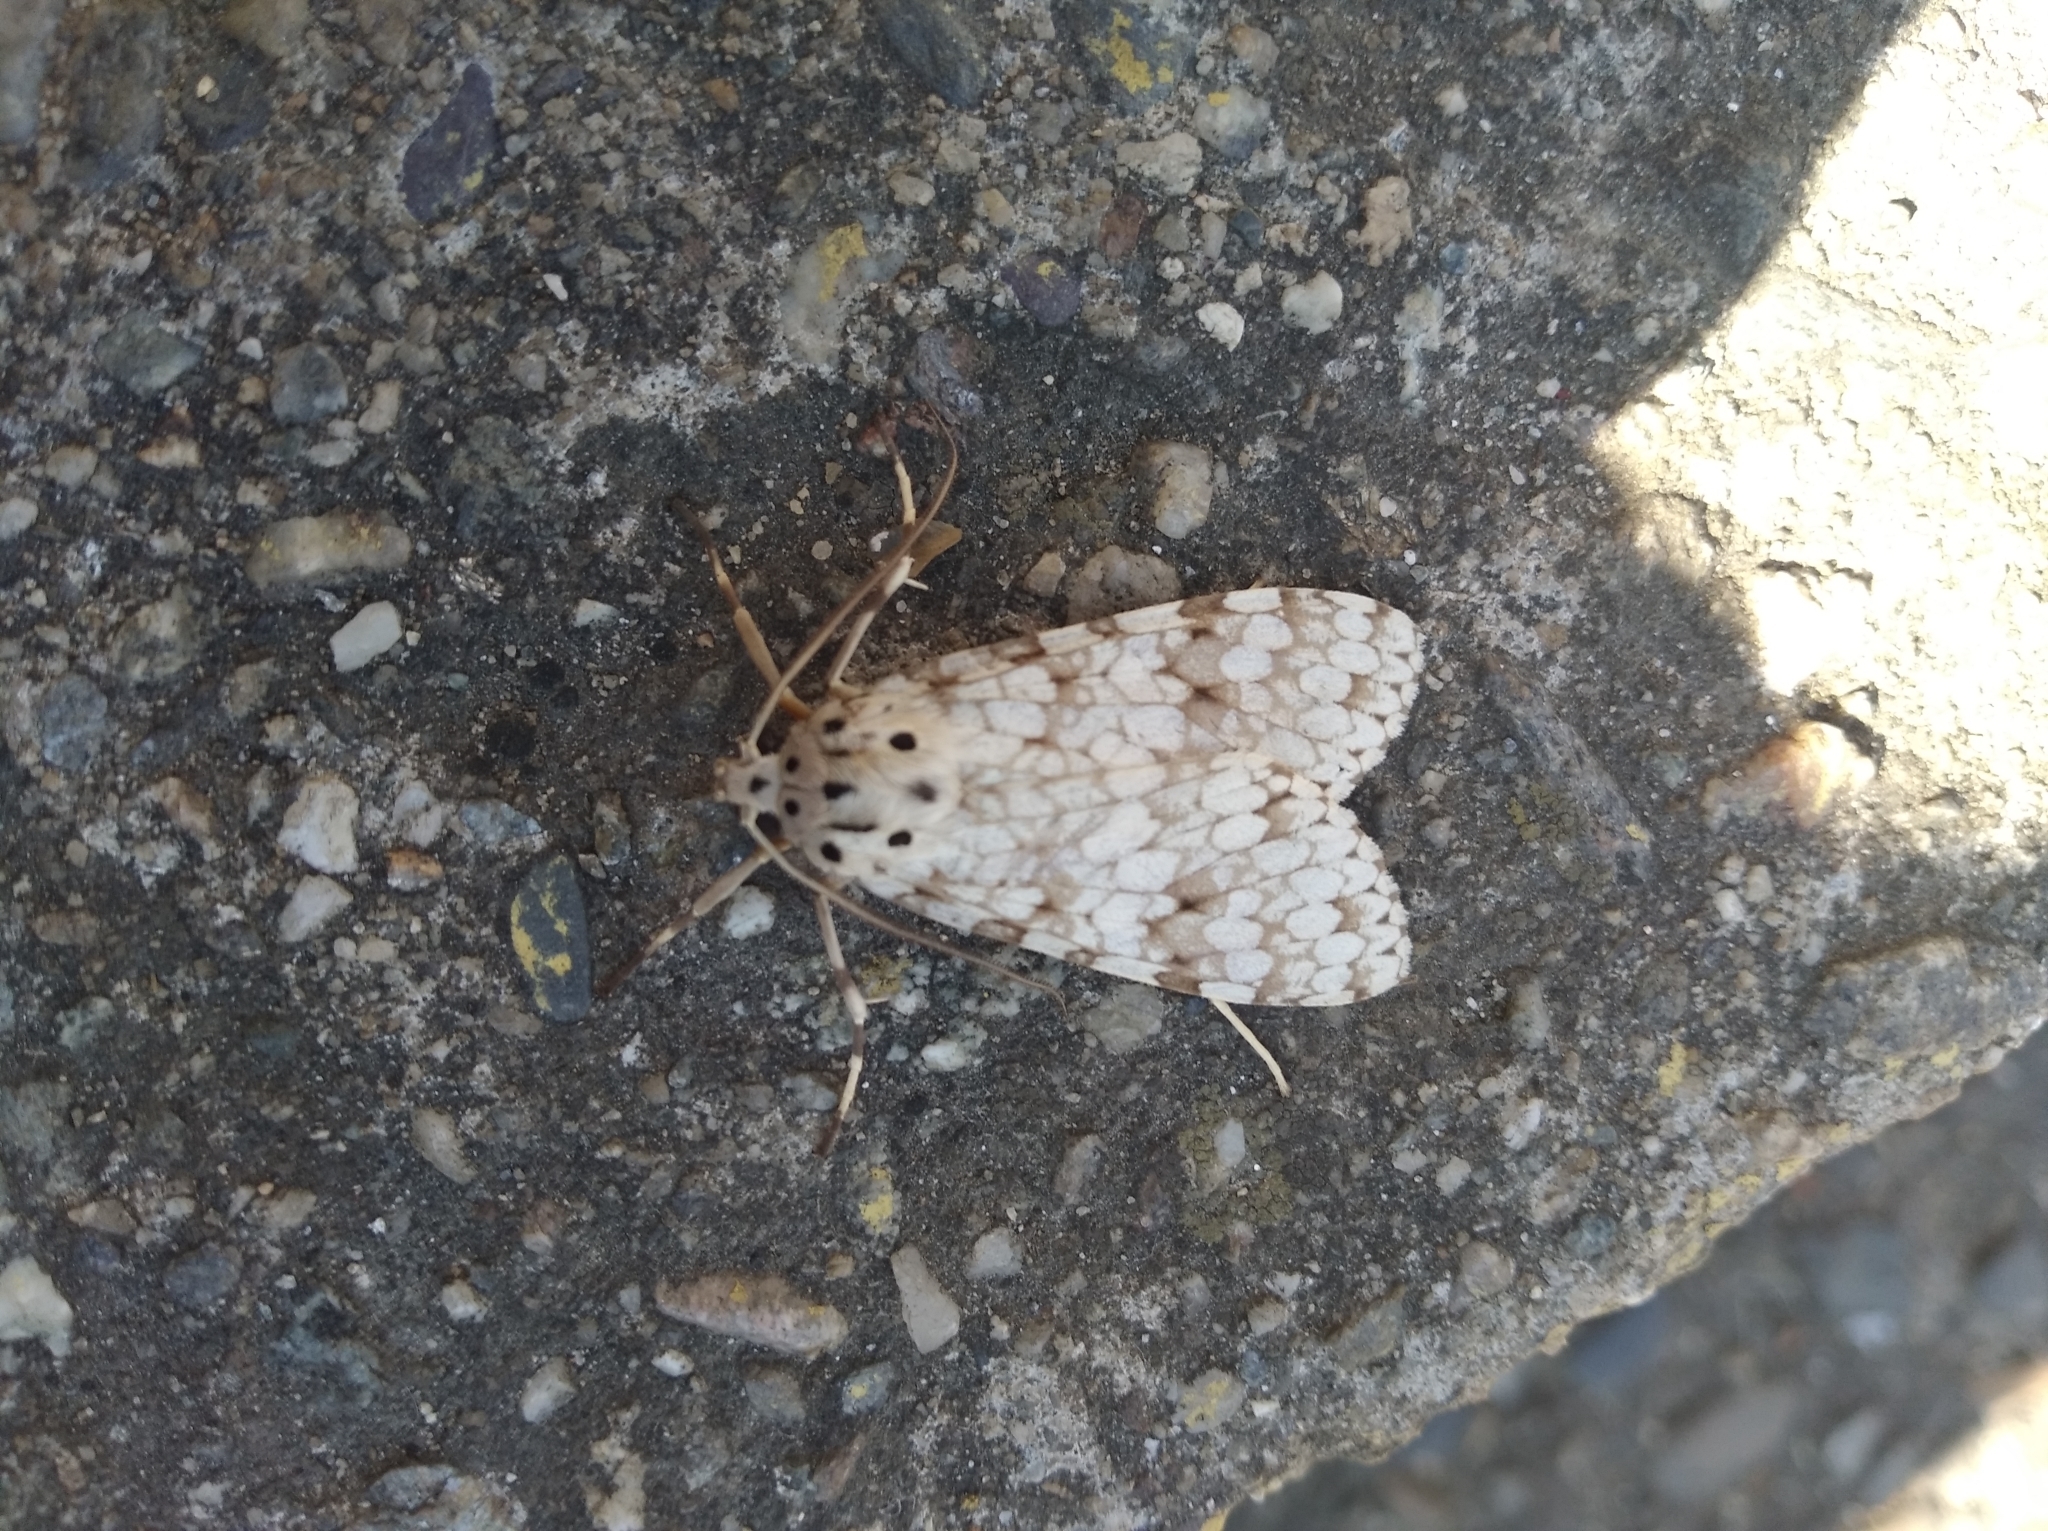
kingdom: Animalia
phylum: Arthropoda
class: Insecta
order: Lepidoptera
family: Erebidae
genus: Carales
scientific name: Carales astur
